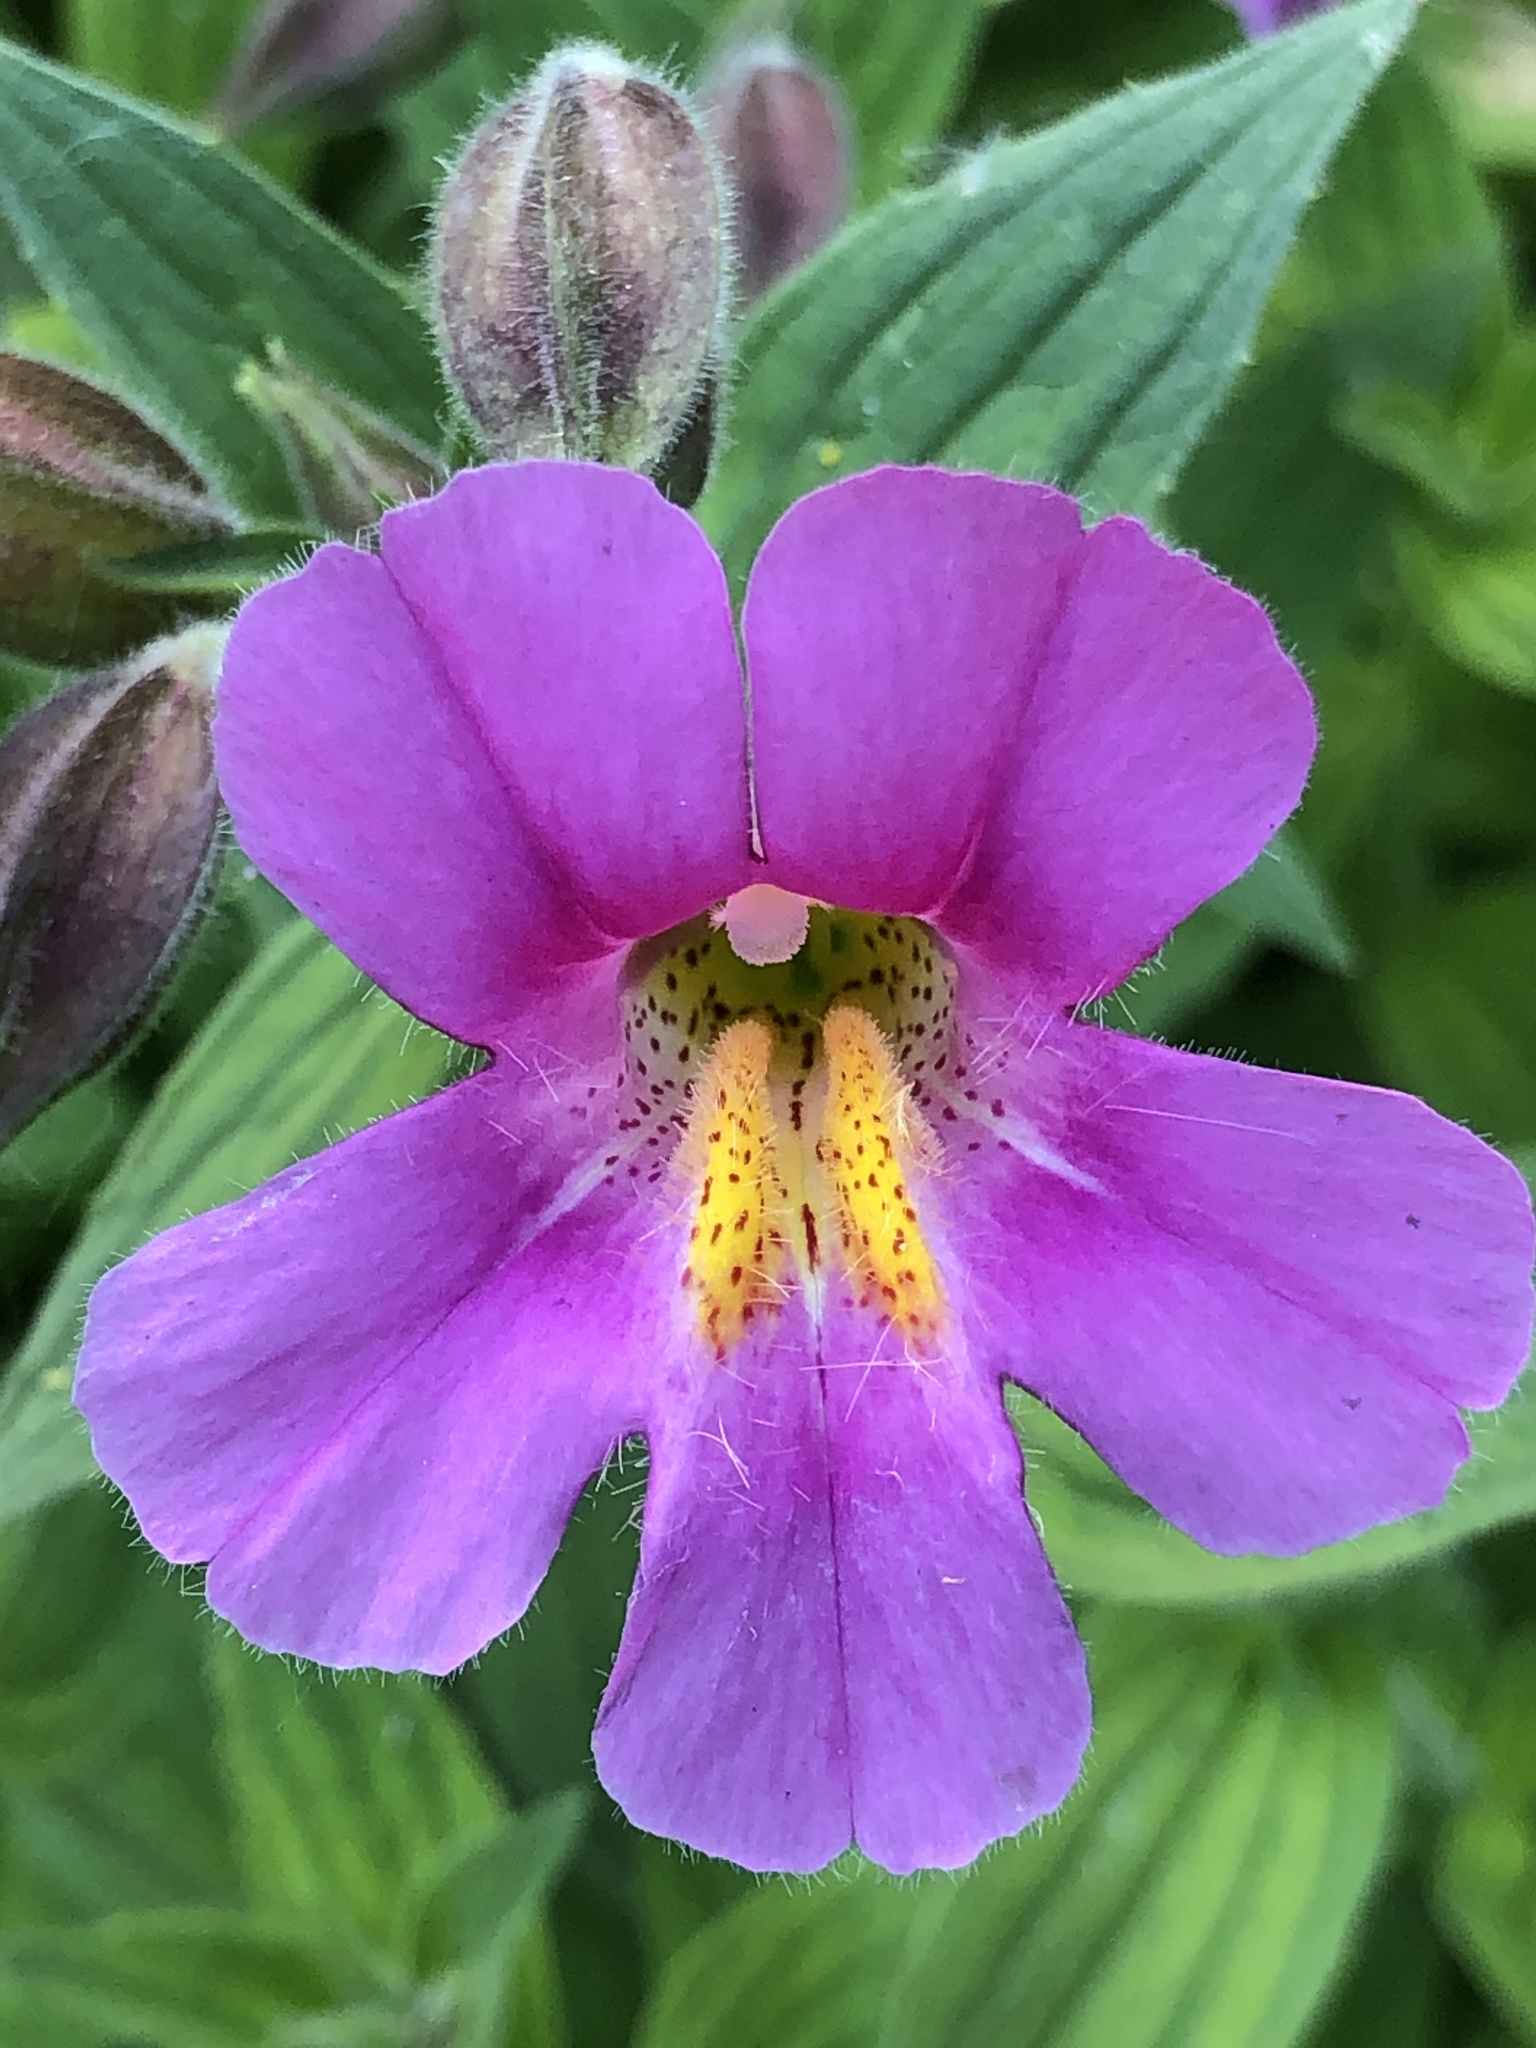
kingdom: Plantae
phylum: Tracheophyta
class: Magnoliopsida
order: Lamiales
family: Phrymaceae
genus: Erythranthe
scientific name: Erythranthe lewisii
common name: Lewis's monkey-flower
